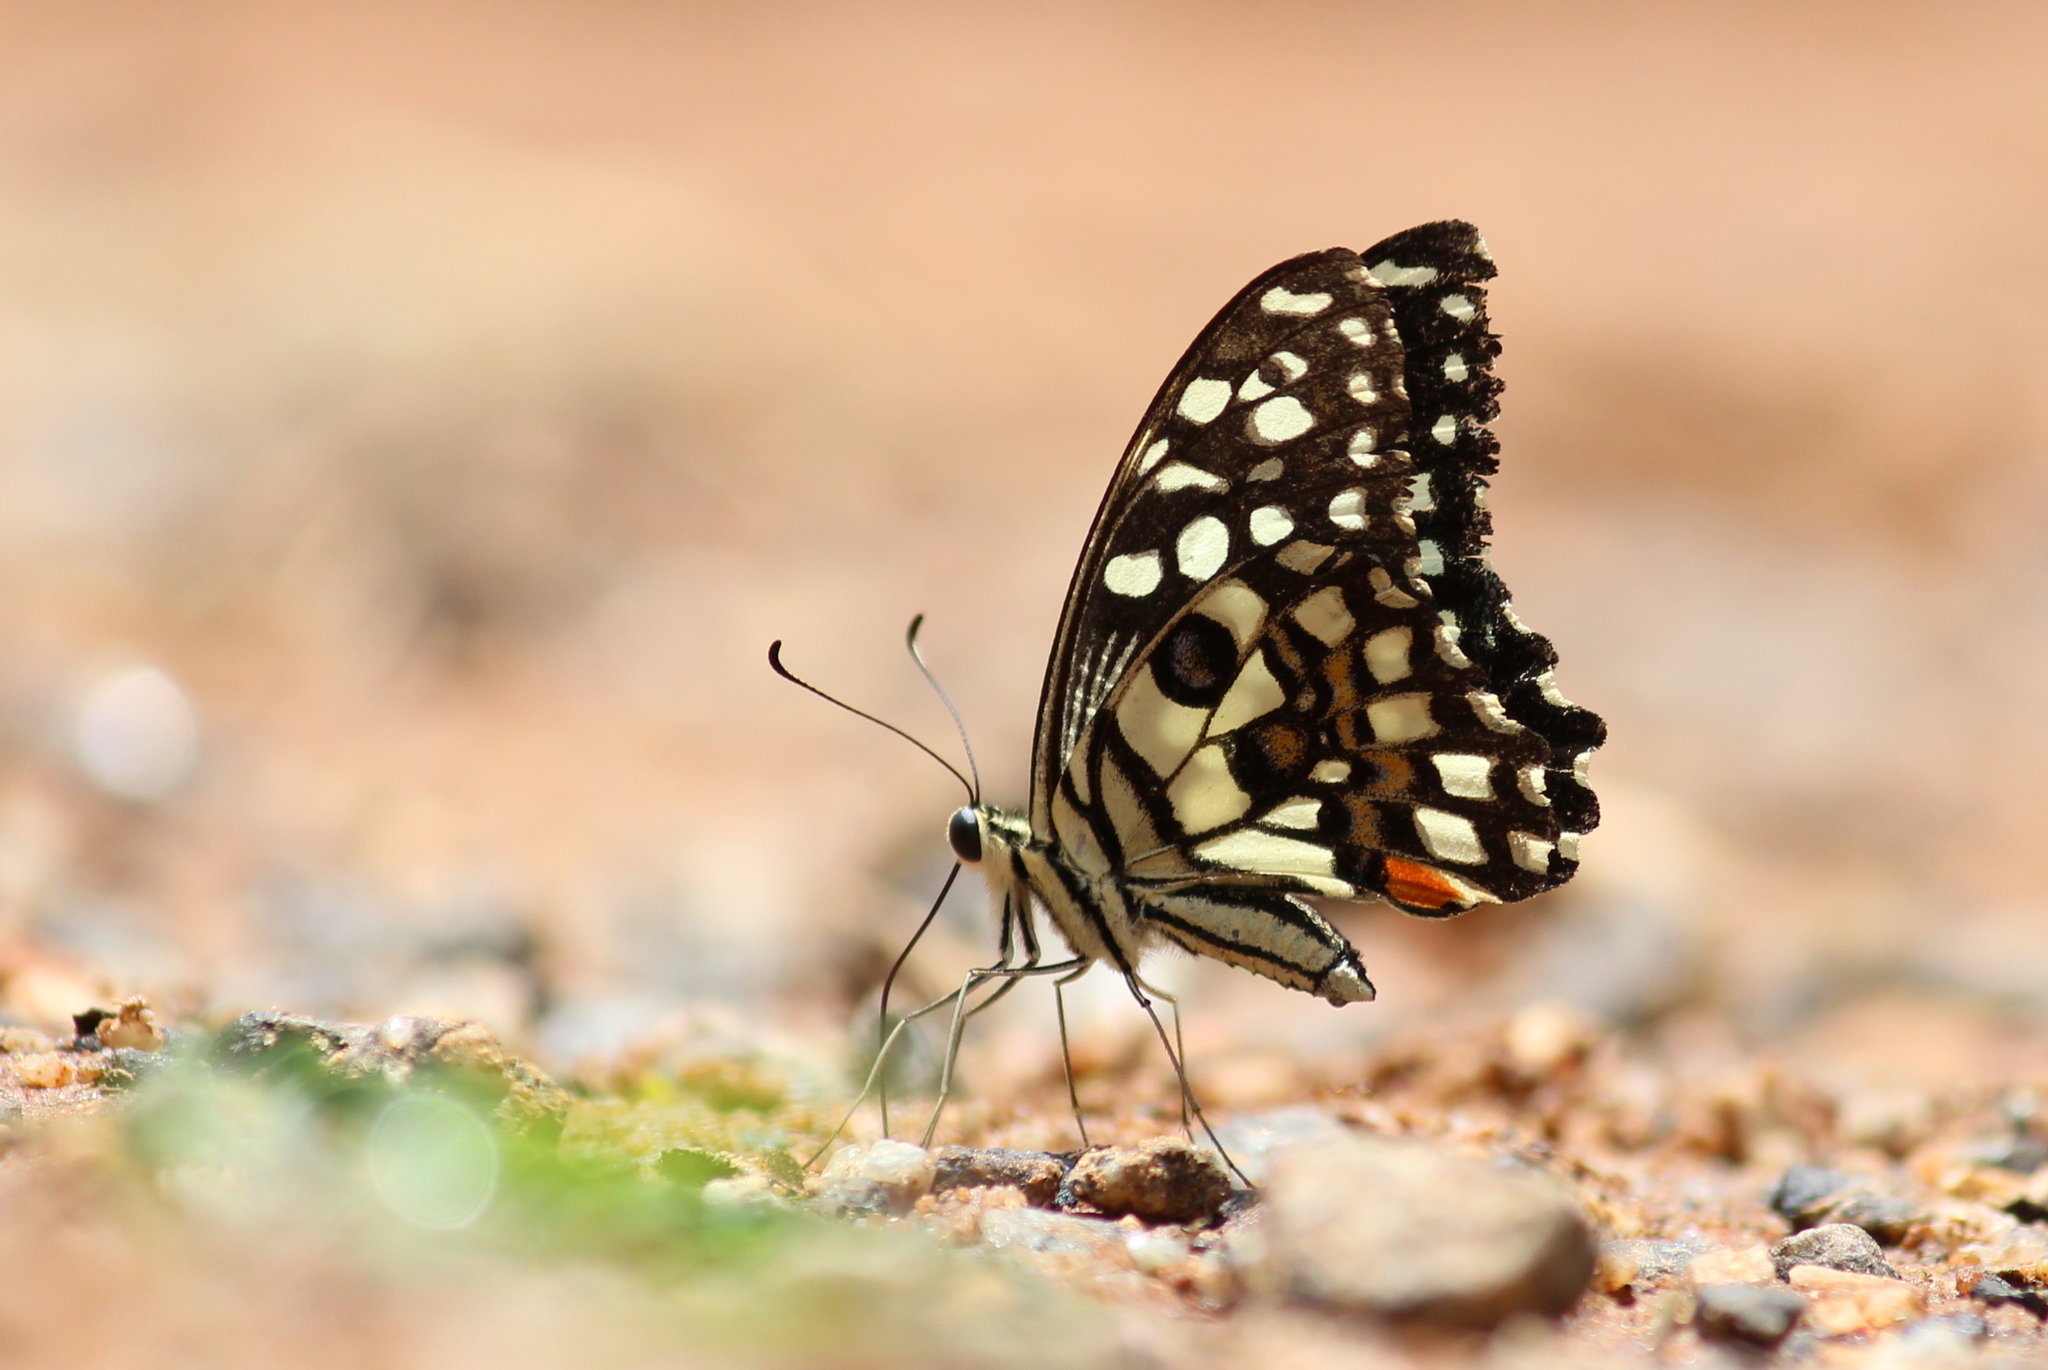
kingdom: Animalia
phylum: Arthropoda
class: Insecta
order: Lepidoptera
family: Papilionidae
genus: Papilio
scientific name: Papilio demoleus
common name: Lime butterfly
